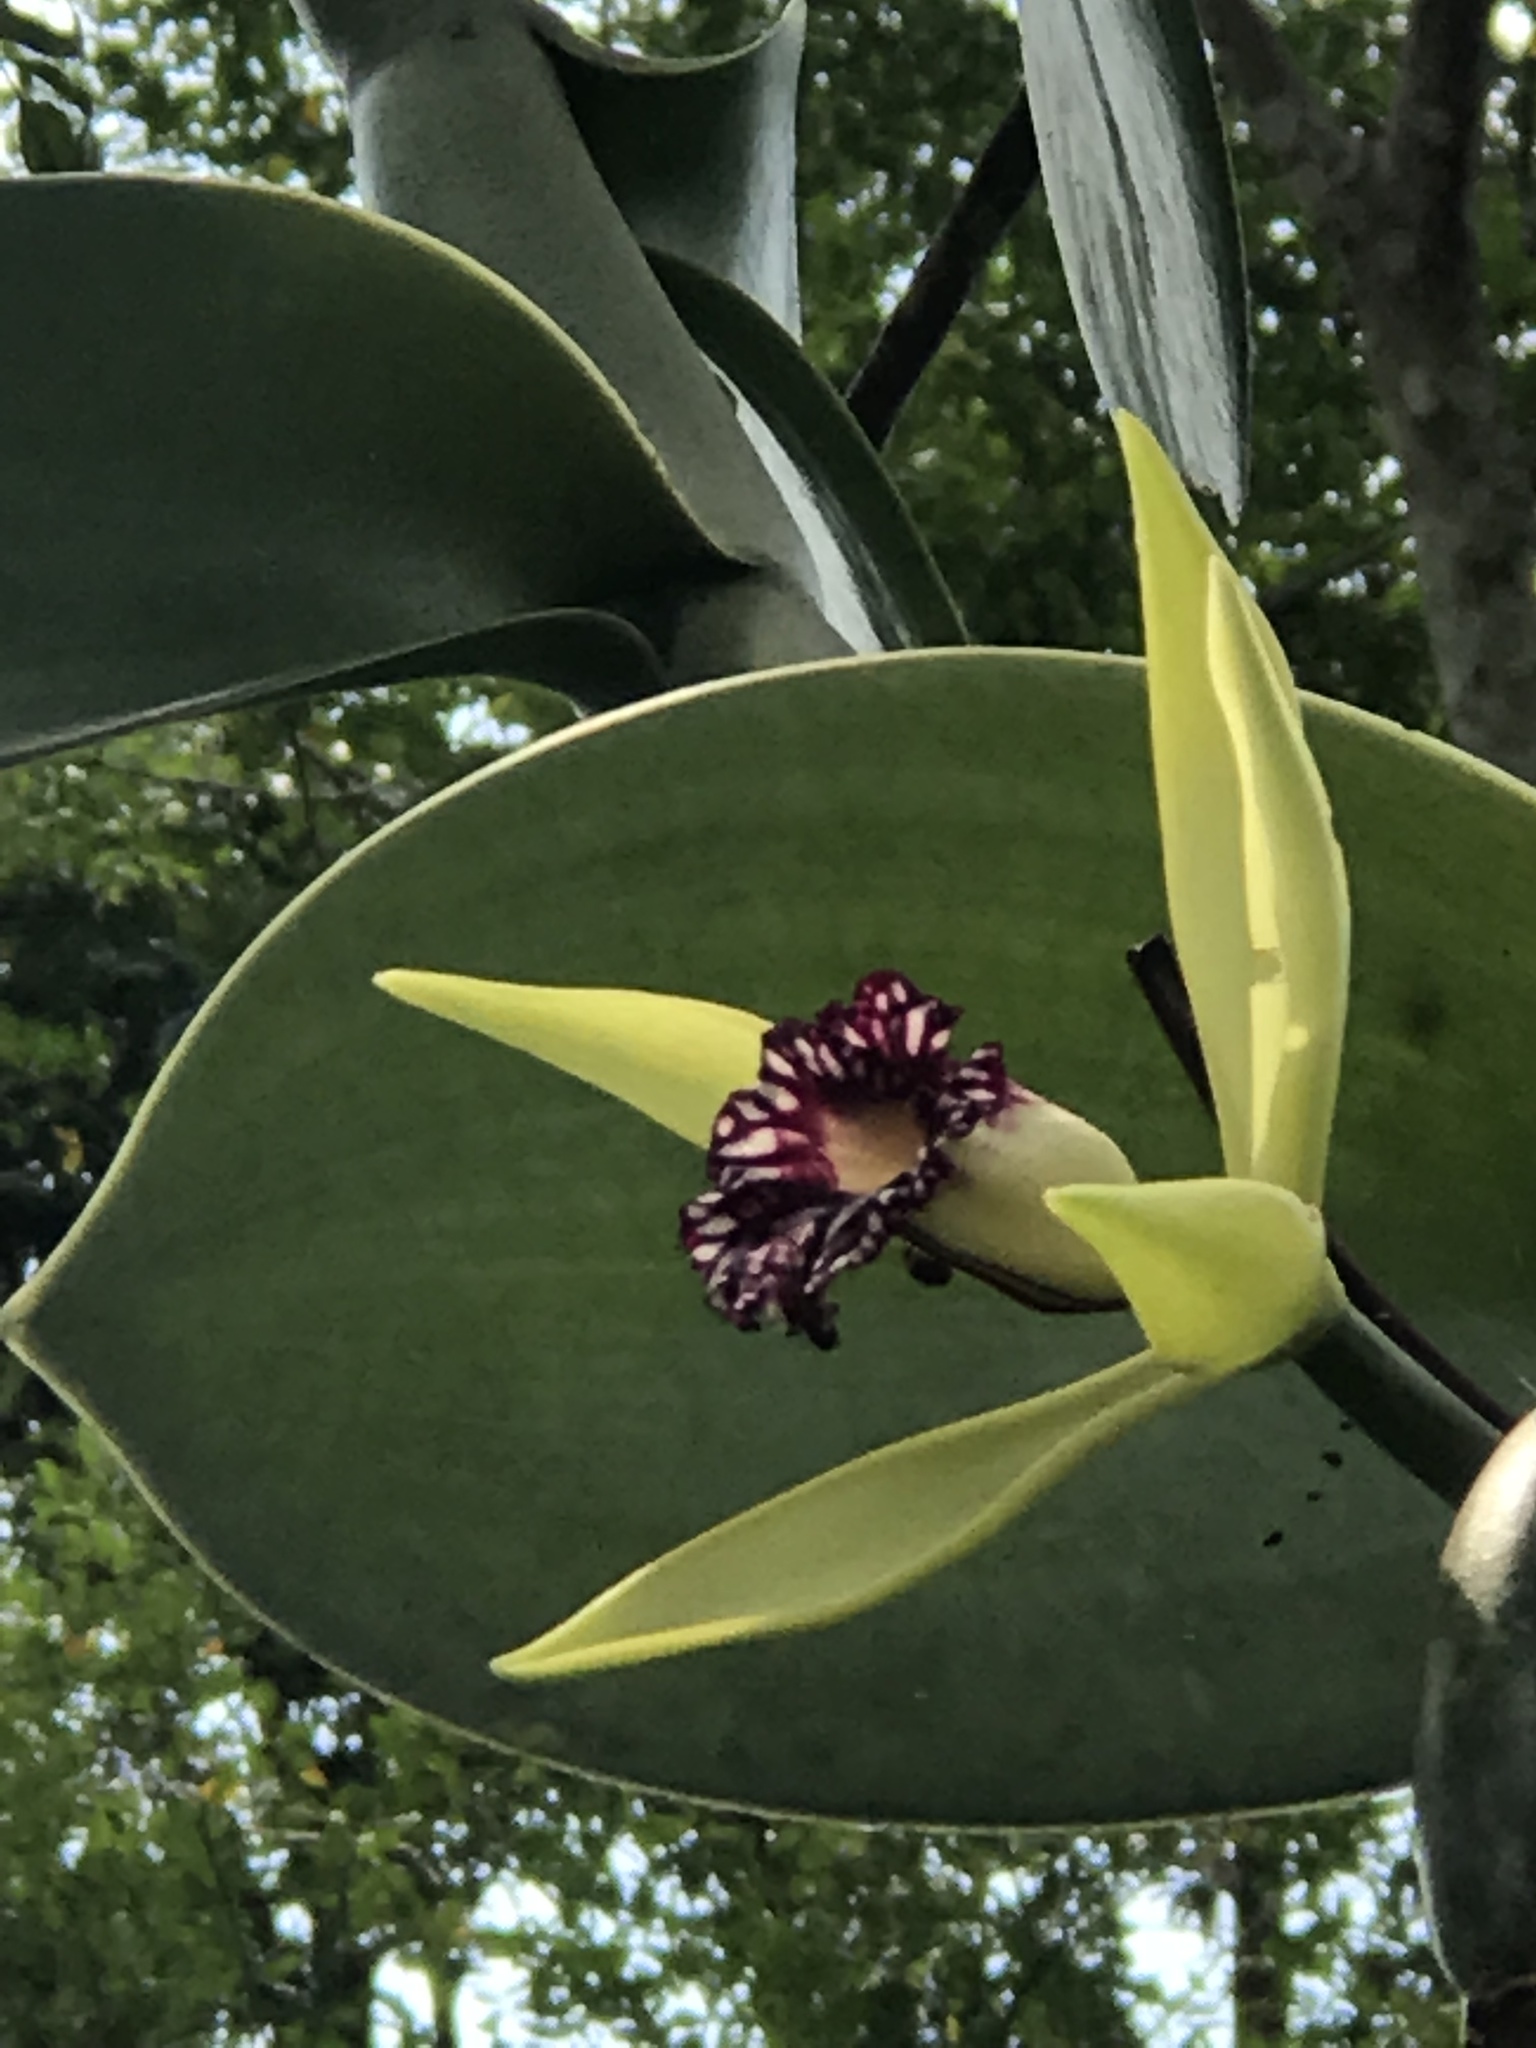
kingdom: Plantae
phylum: Tracheophyta
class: Liliopsida
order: Asparagales
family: Orchidaceae
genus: Vanilla
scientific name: Vanilla imperialis
